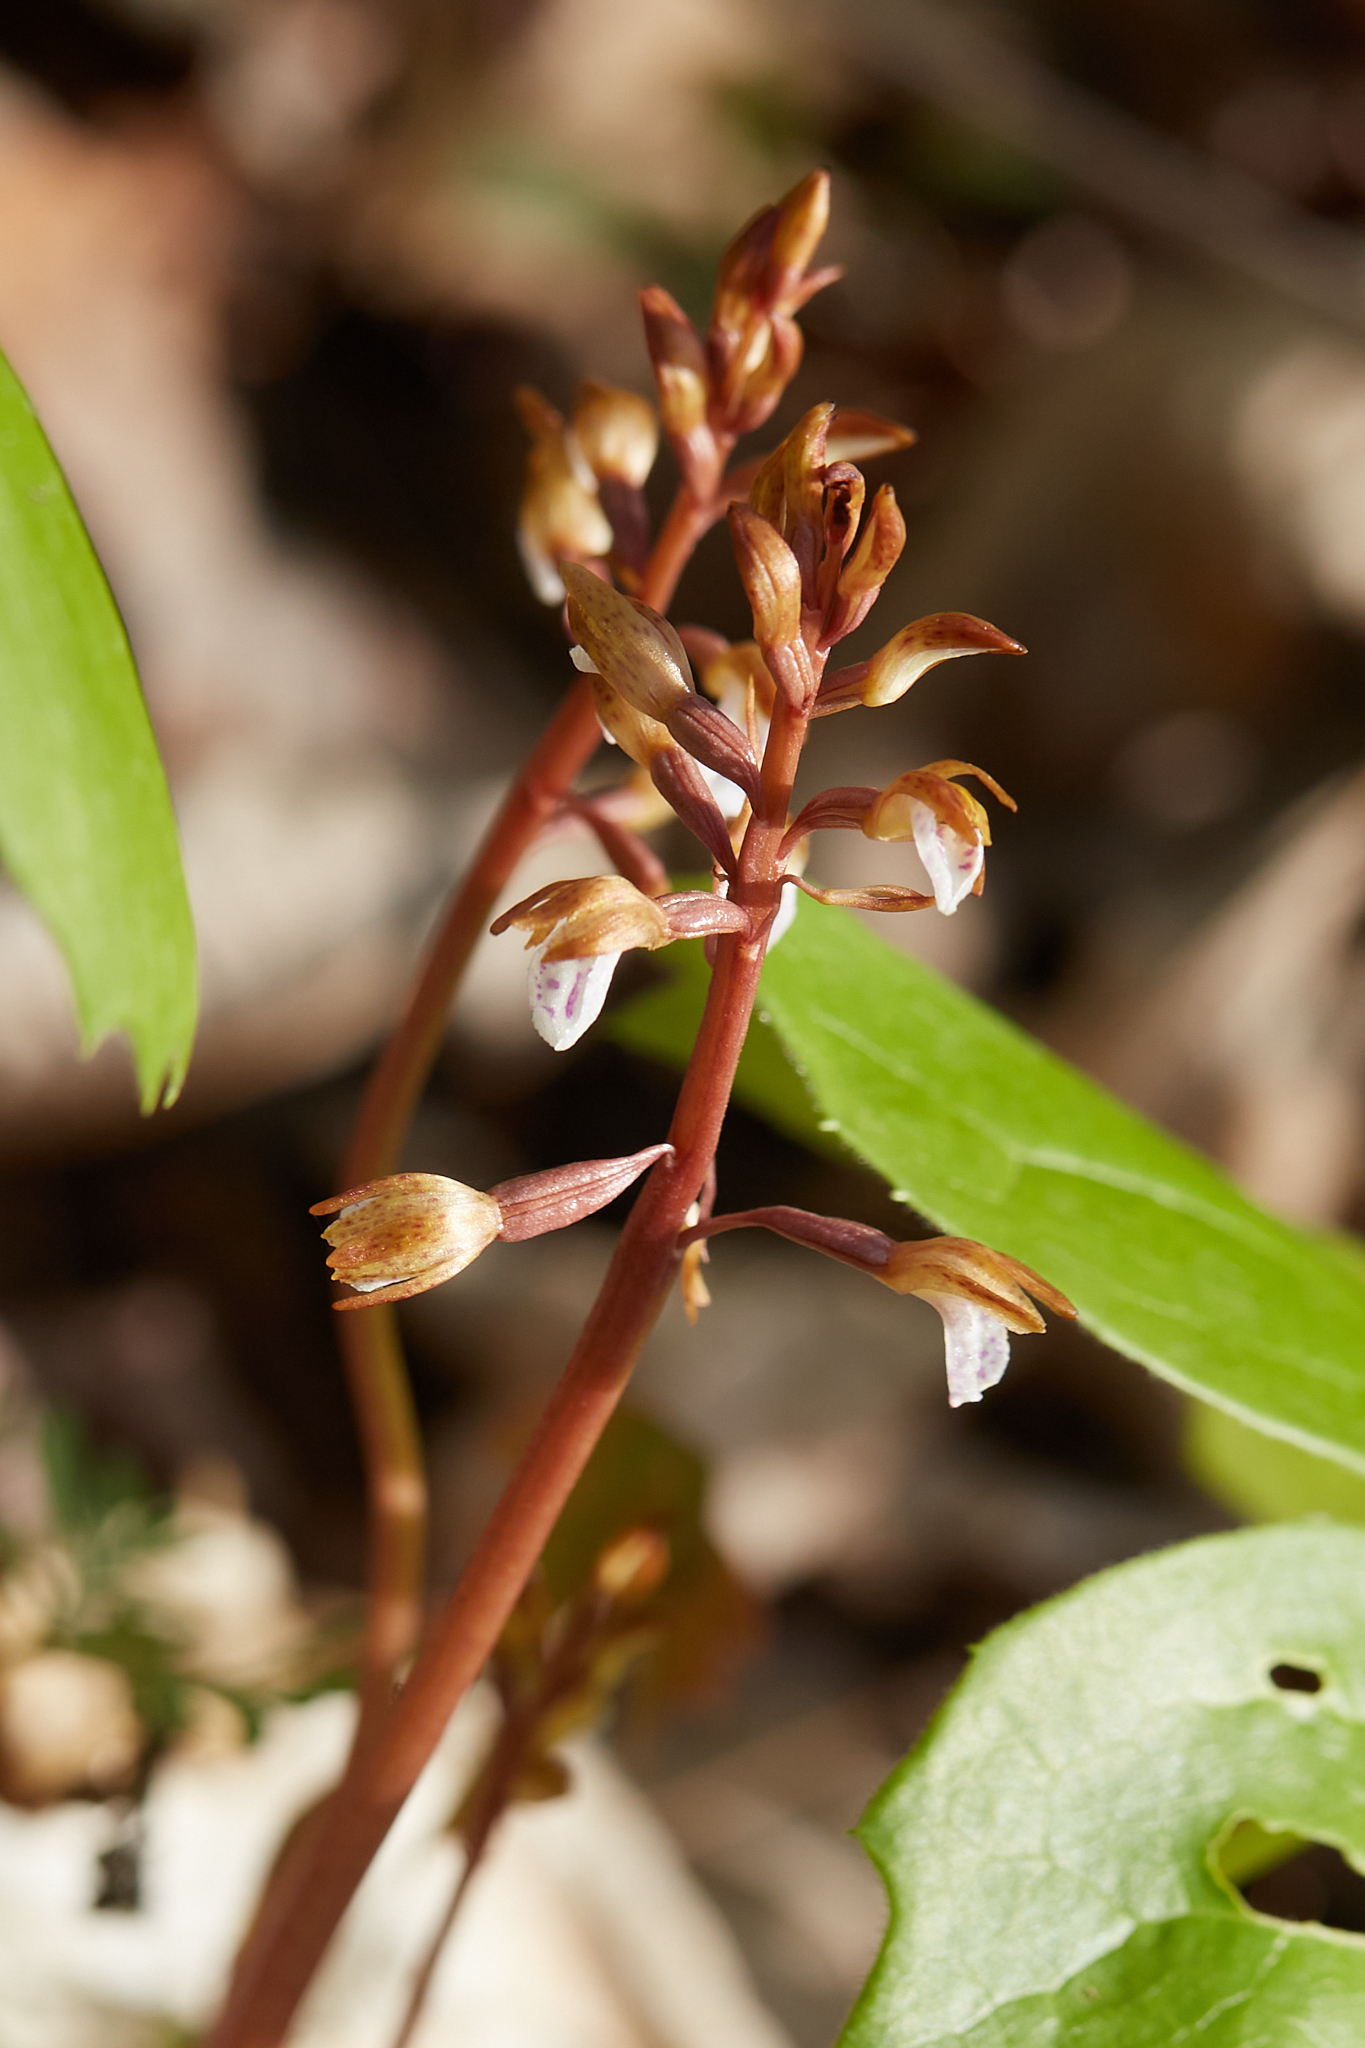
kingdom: Plantae
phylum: Tracheophyta
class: Liliopsida
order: Asparagales
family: Orchidaceae
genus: Corallorhiza
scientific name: Corallorhiza wisteriana
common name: Spring coralroot
